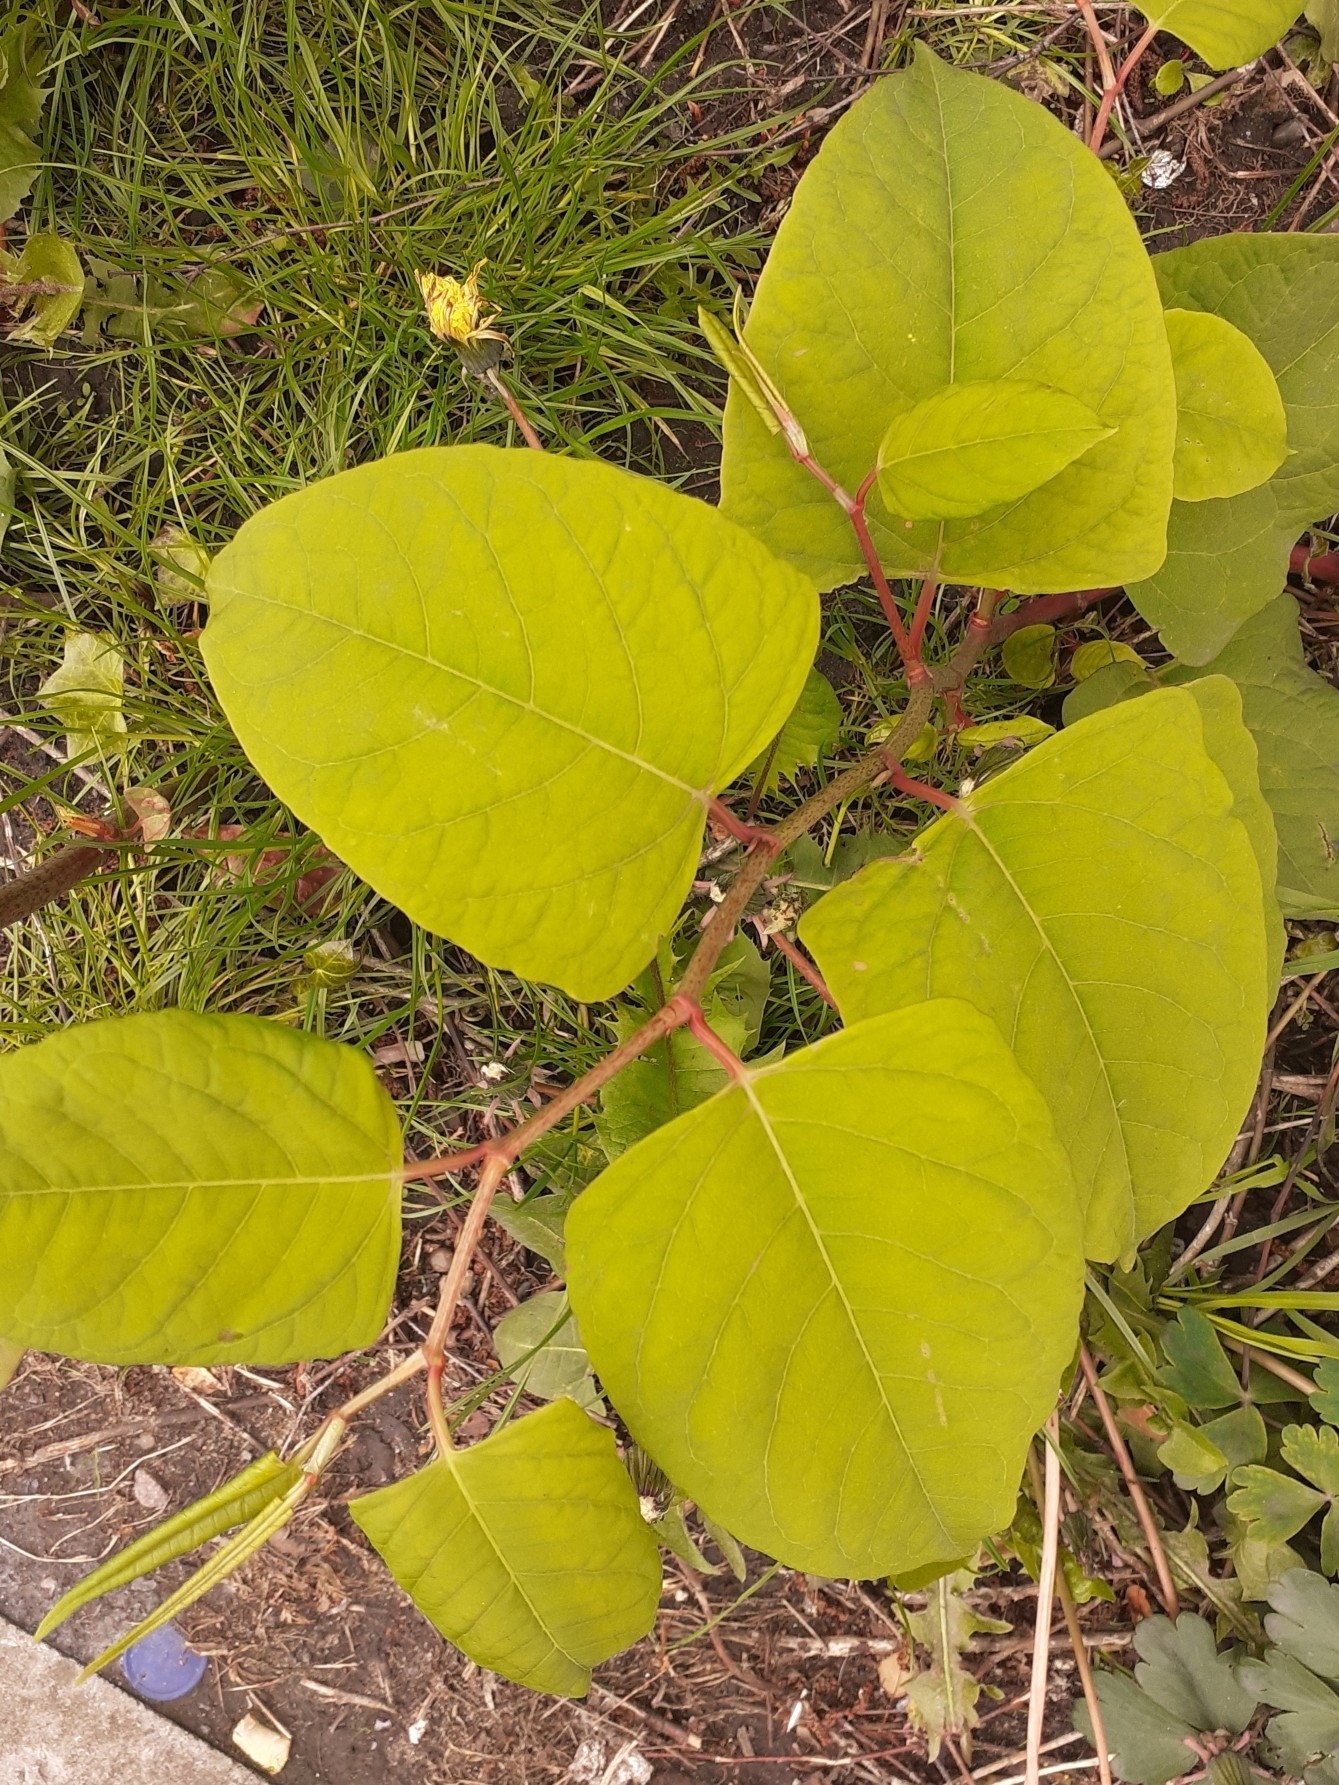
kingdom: Plantae
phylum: Tracheophyta
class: Magnoliopsida
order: Caryophyllales
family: Polygonaceae
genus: Reynoutria
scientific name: Reynoutria japonica
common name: Japanese knotweed
